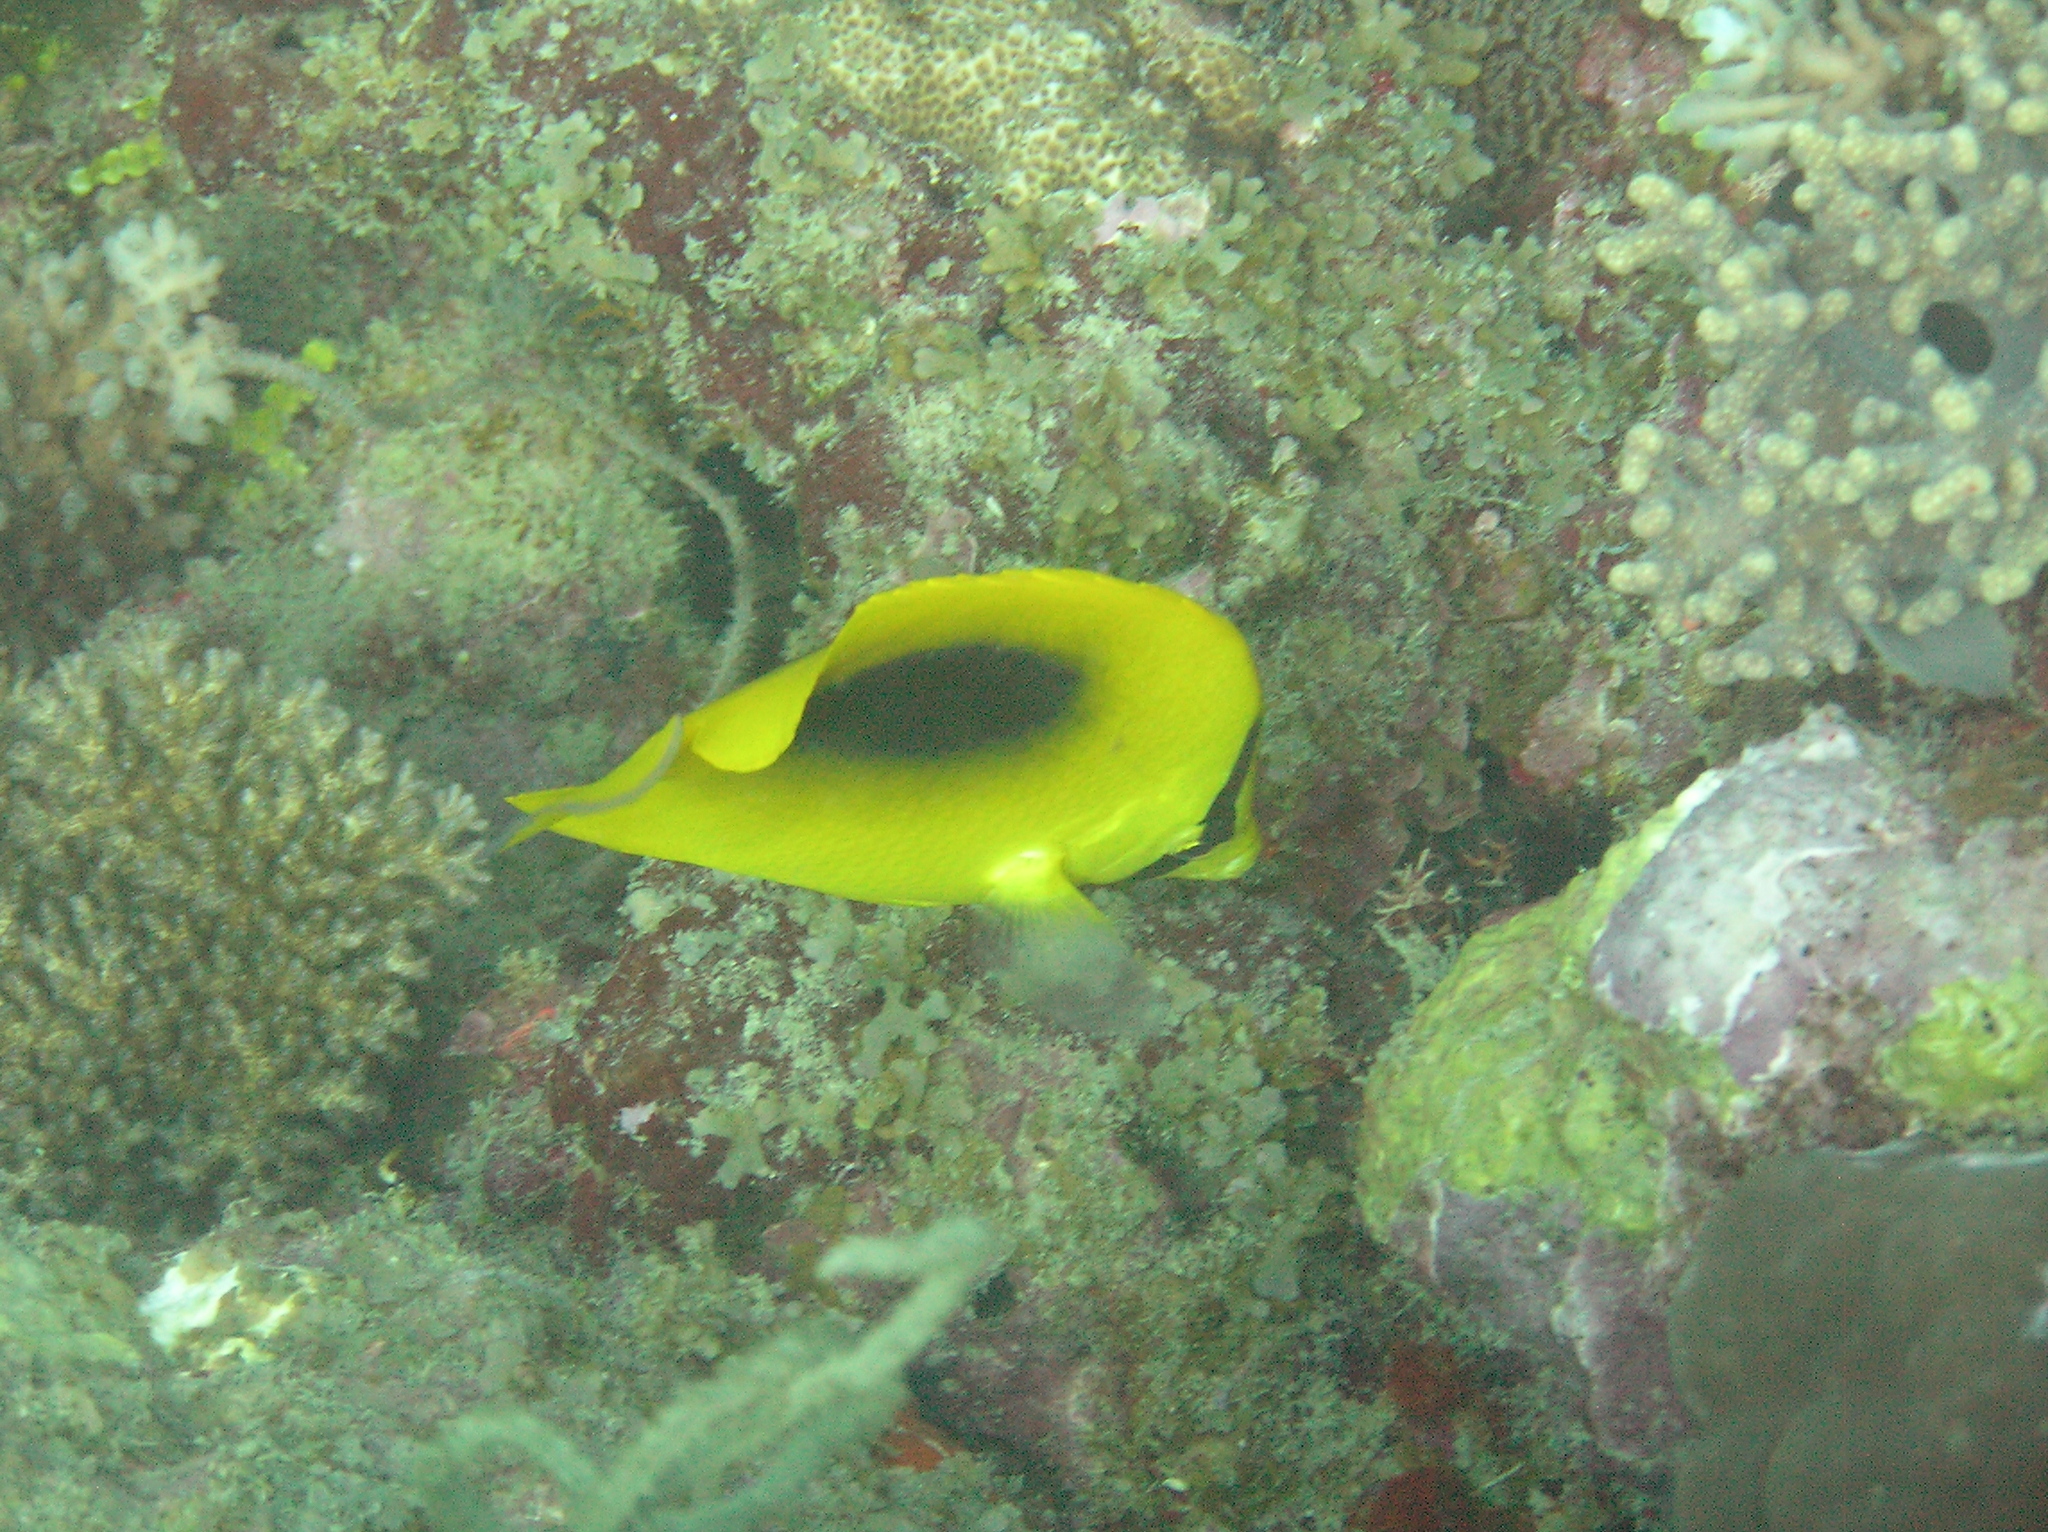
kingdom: Animalia
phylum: Chordata
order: Perciformes
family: Chaetodontidae
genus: Chaetodon
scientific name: Chaetodon speculum
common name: Mirror butterflyfish
